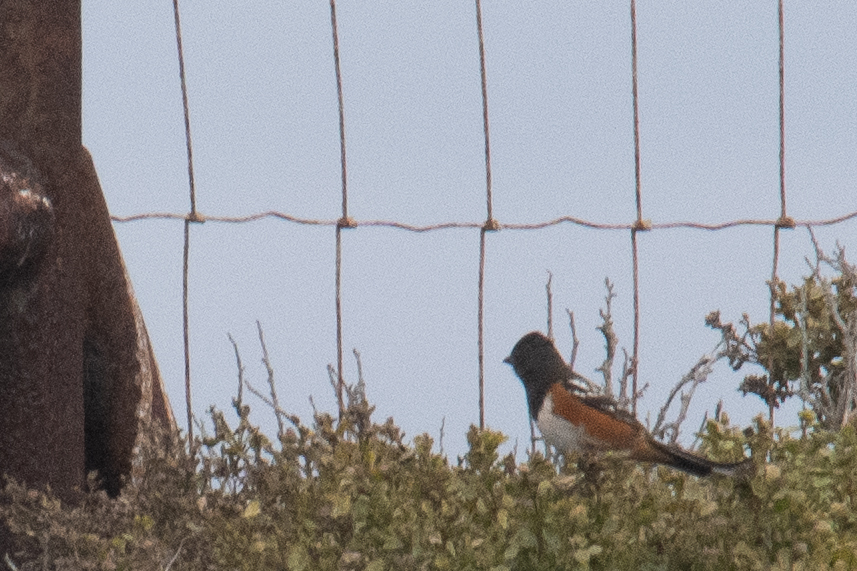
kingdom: Animalia
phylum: Chordata
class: Aves
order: Passeriformes
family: Passerellidae
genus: Pipilo
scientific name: Pipilo maculatus
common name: Spotted towhee
